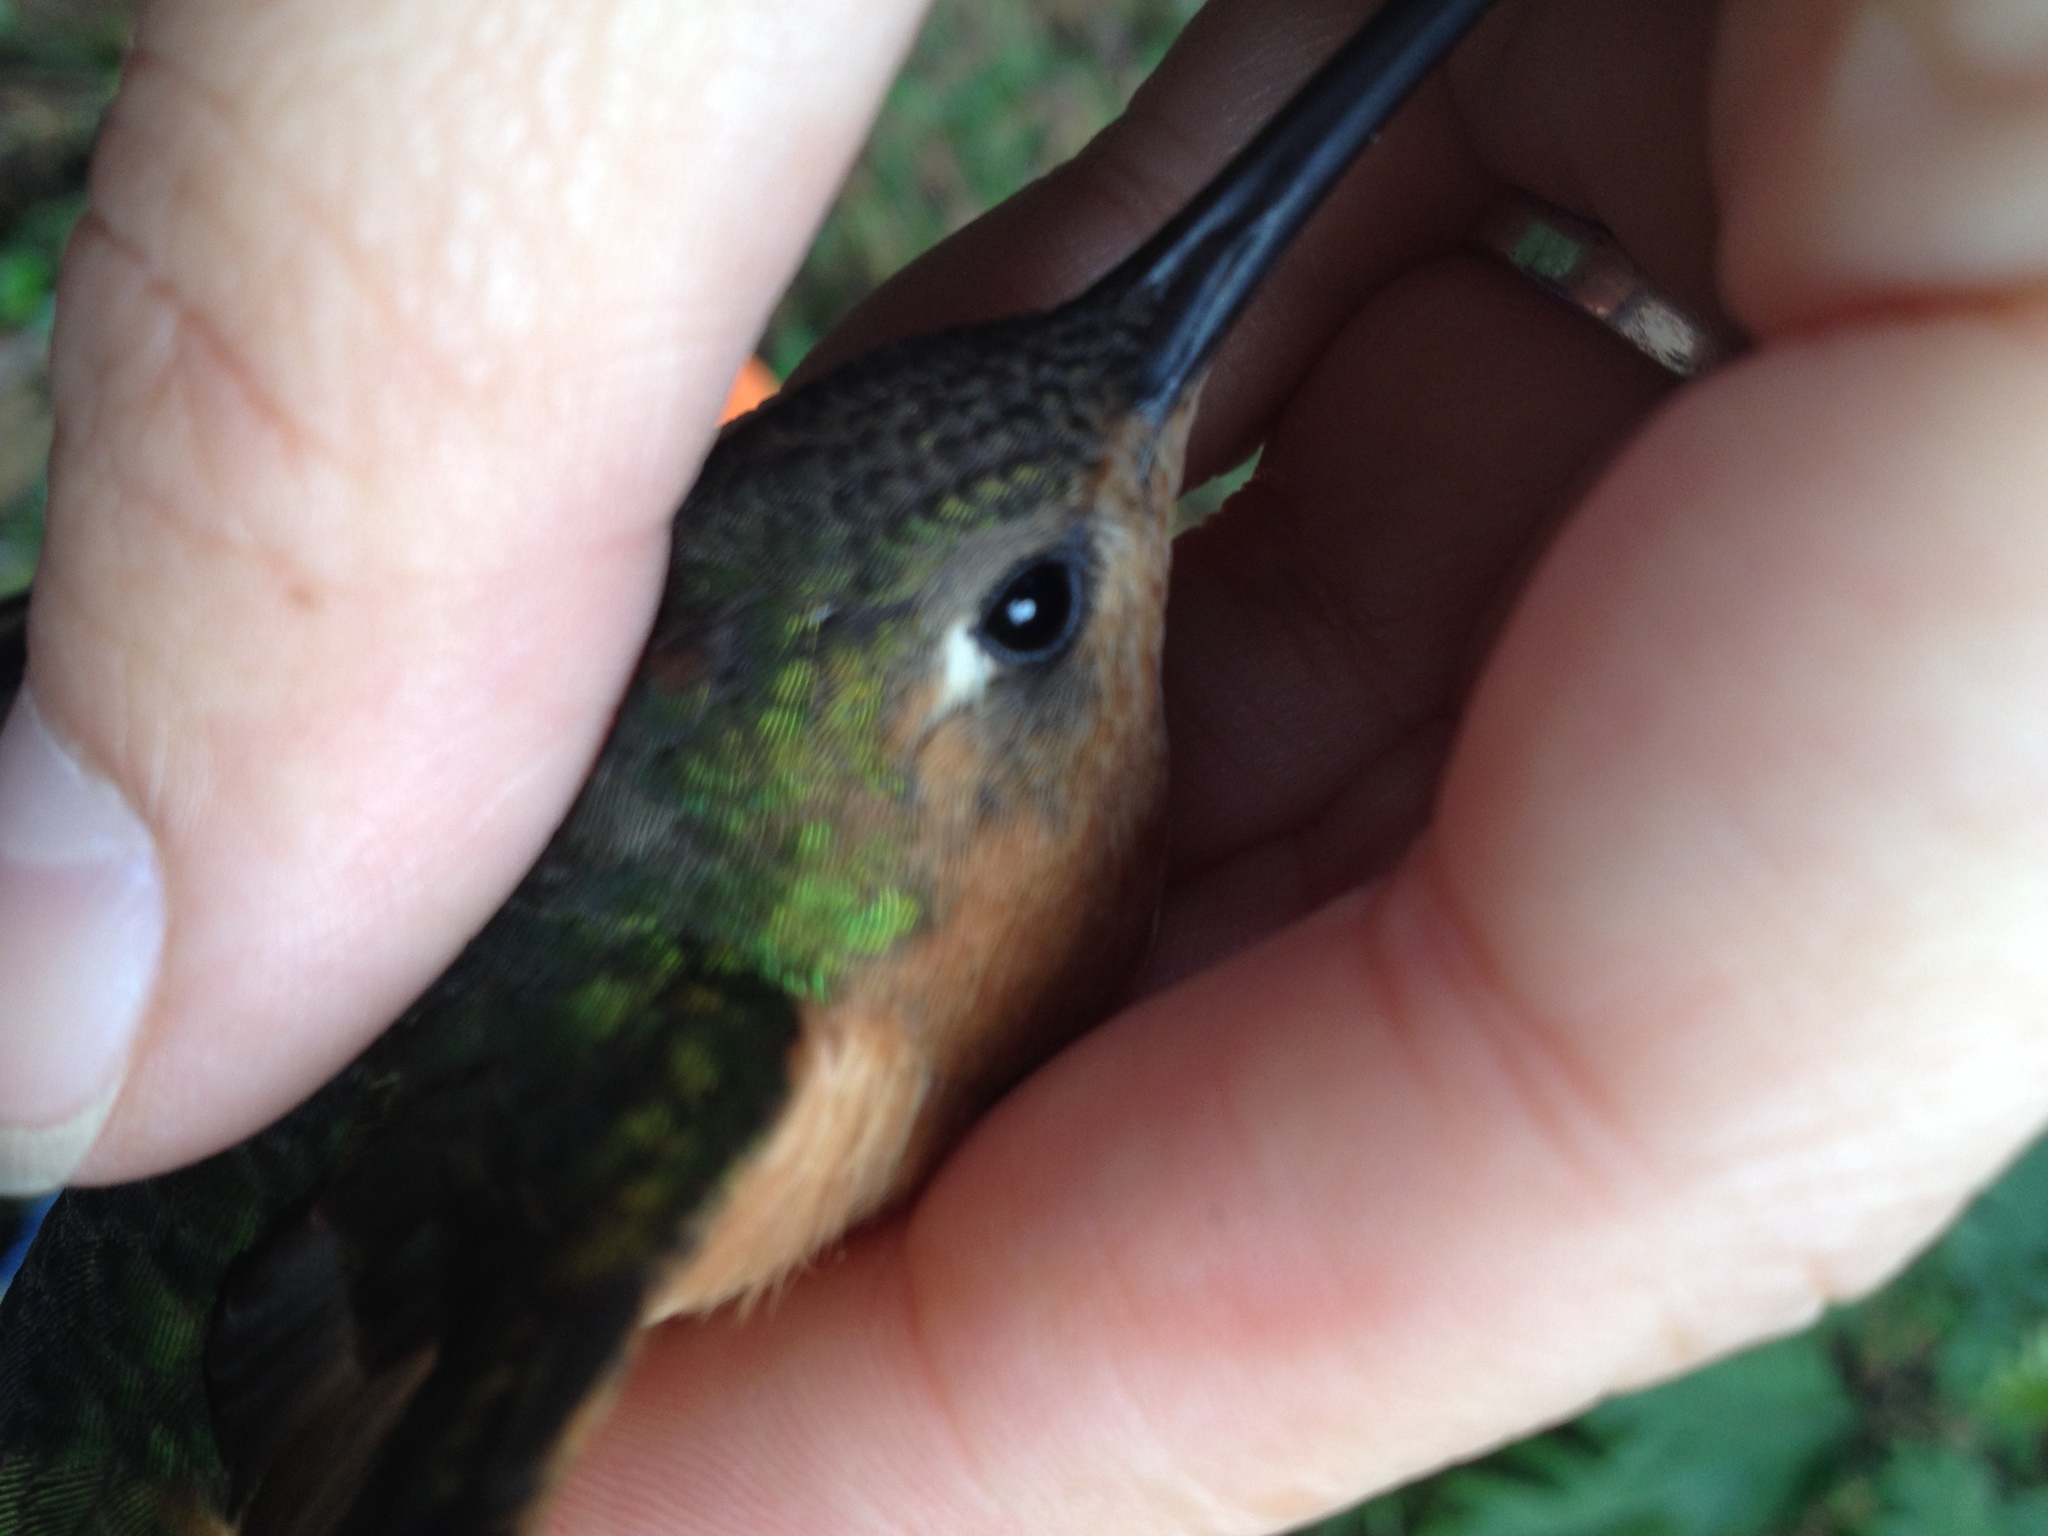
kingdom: Animalia
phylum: Chordata
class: Aves
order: Apodiformes
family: Trochilidae
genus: Pampa
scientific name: Pampa rufa
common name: Rufous sabrewing
